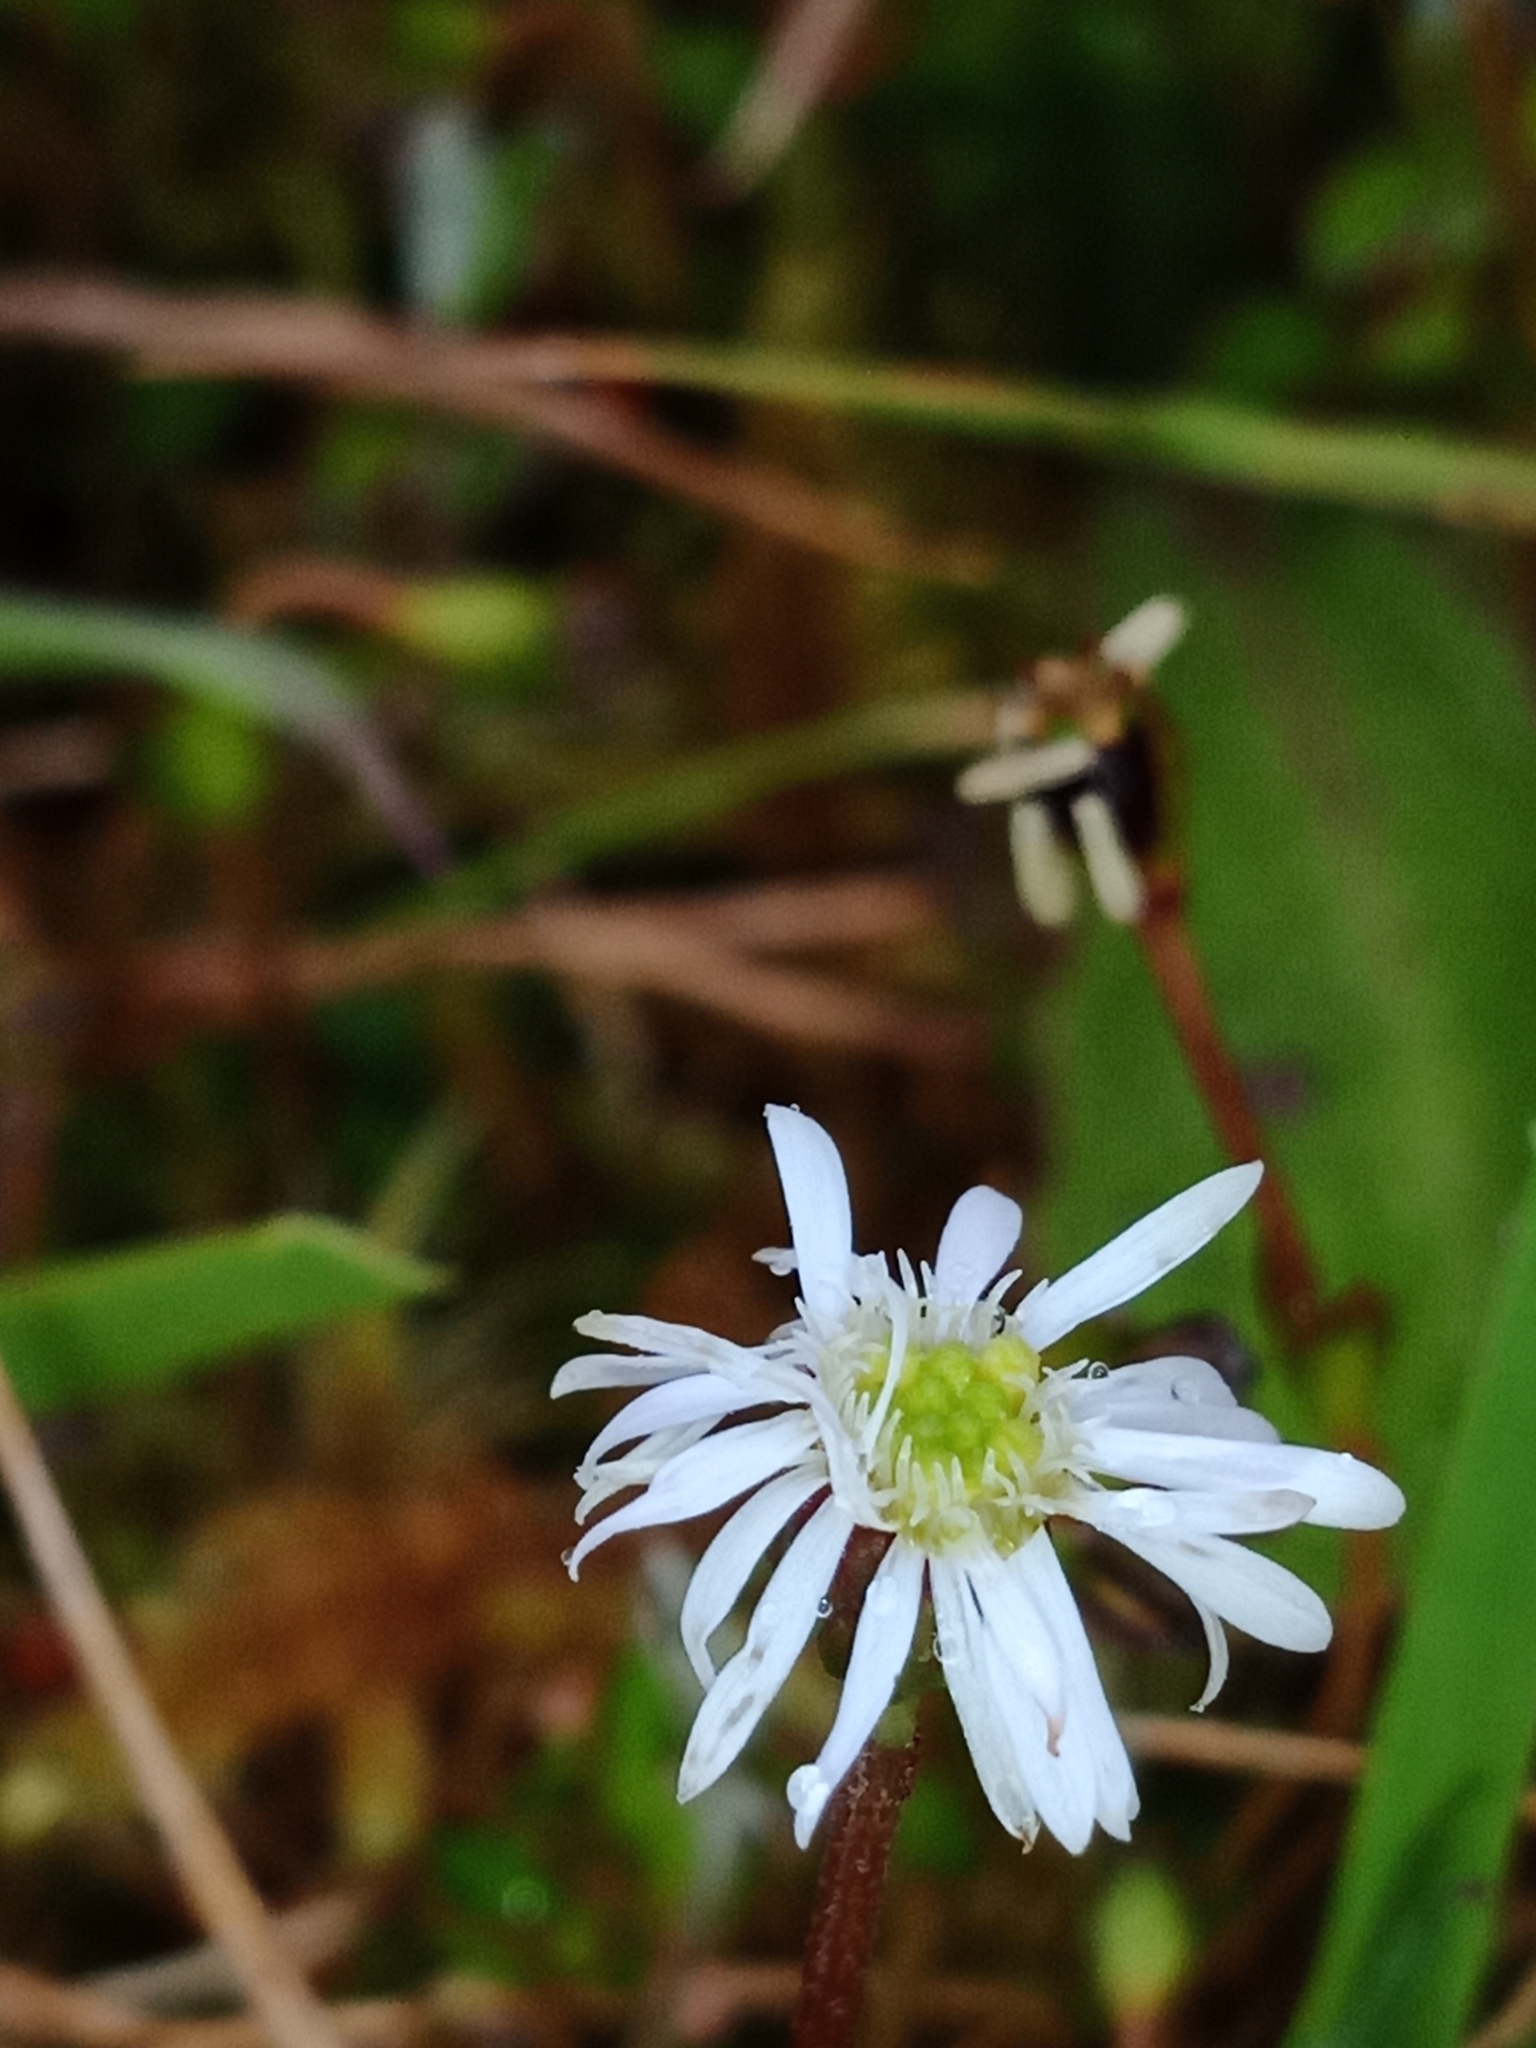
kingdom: Plantae
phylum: Tracheophyta
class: Magnoliopsida
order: Asterales
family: Asteraceae
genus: Lagenophora
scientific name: Lagenophora petiolata
